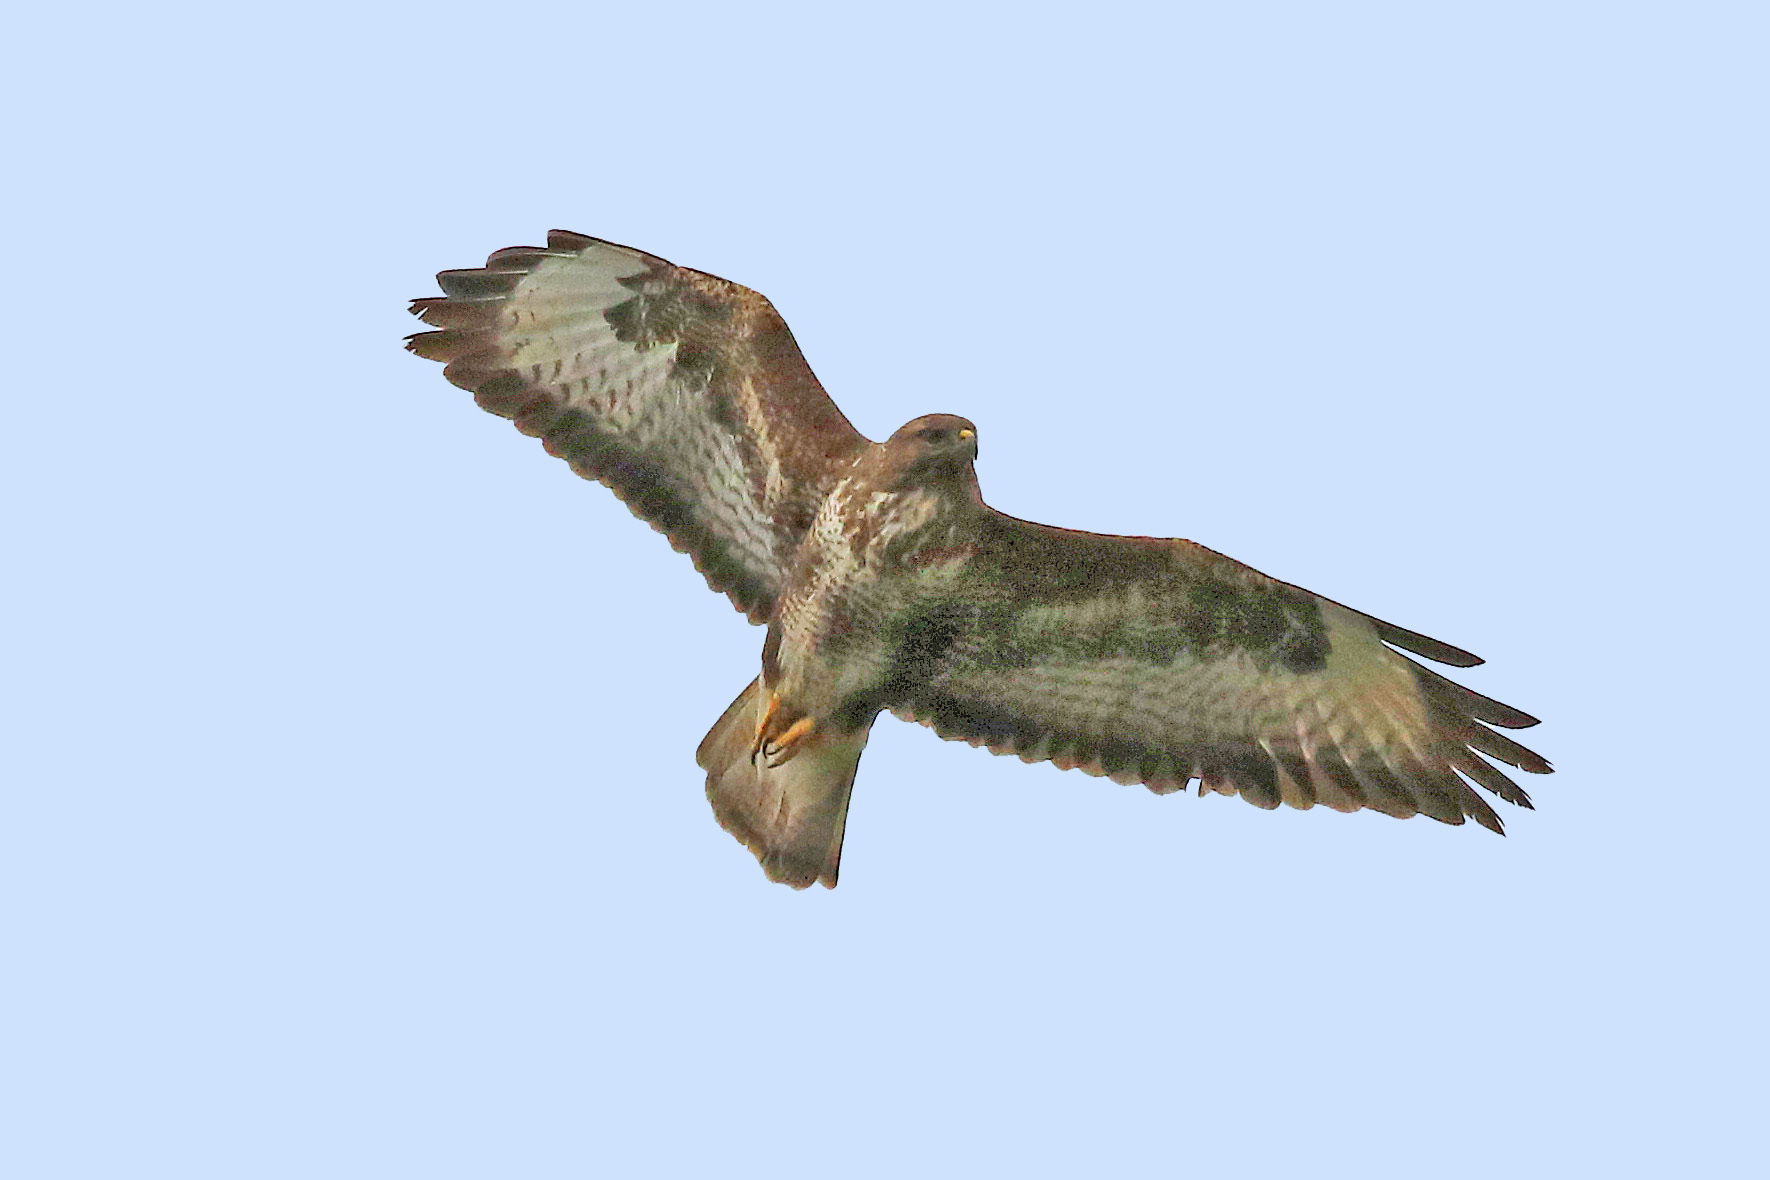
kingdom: Animalia
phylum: Chordata
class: Aves
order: Accipitriformes
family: Accipitridae
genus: Buteo
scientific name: Buteo buteo
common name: Common buzzard
